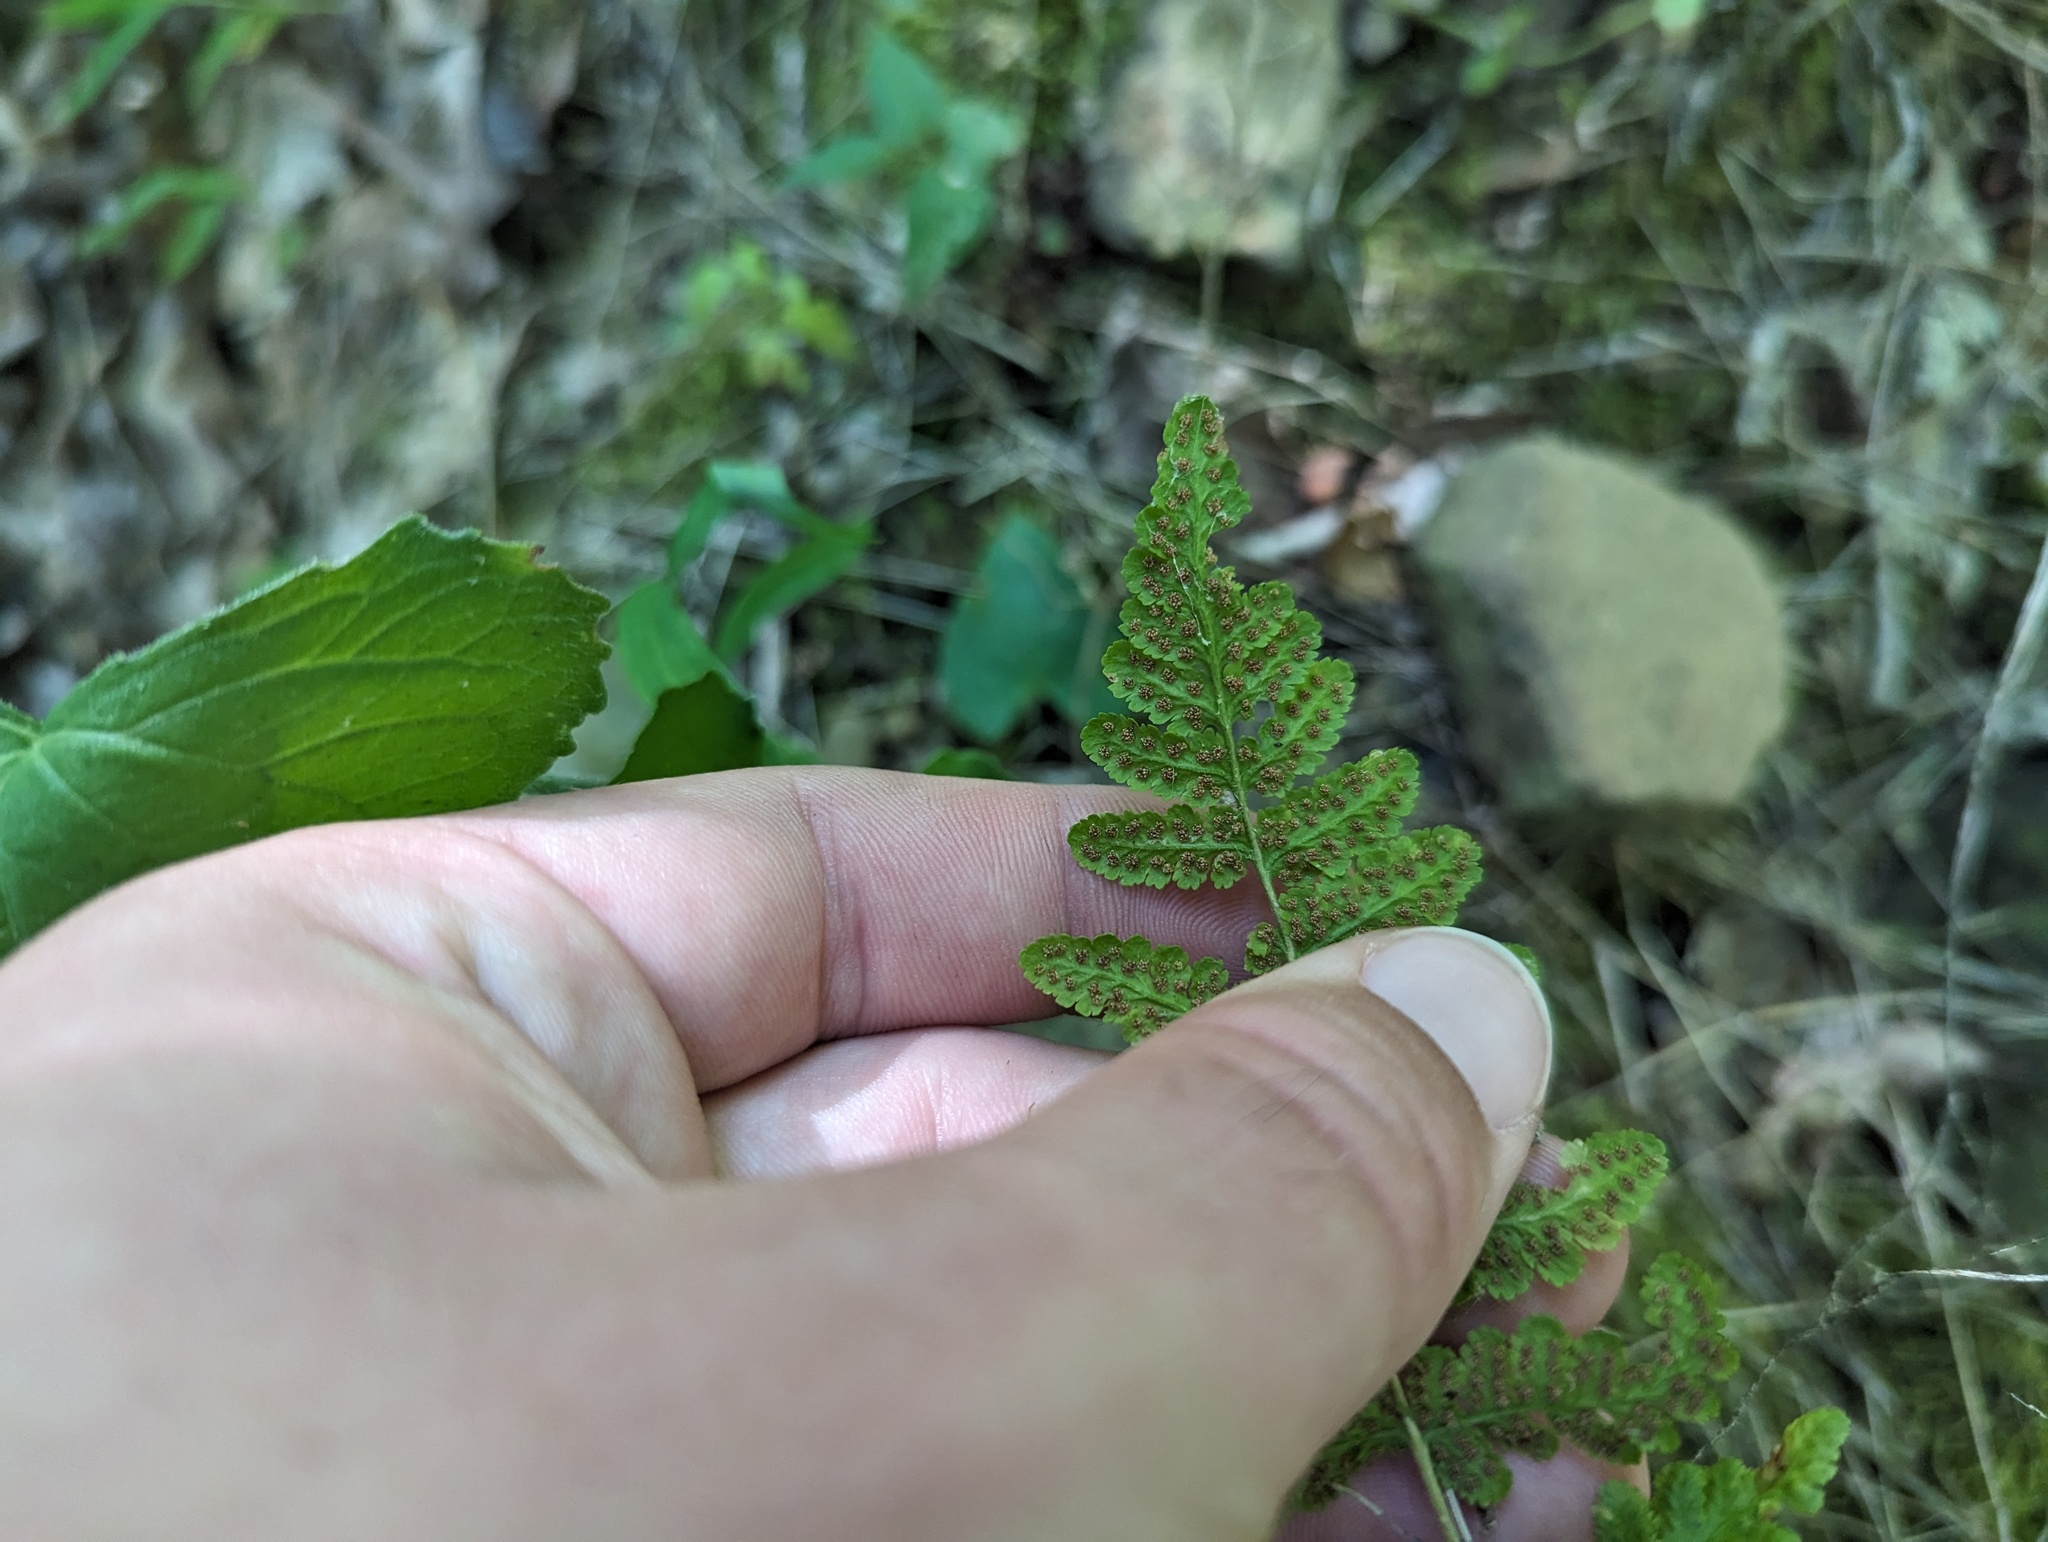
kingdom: Plantae
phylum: Tracheophyta
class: Polypodiopsida
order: Polypodiales
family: Woodsiaceae
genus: Physematium
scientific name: Physematium obtusum
